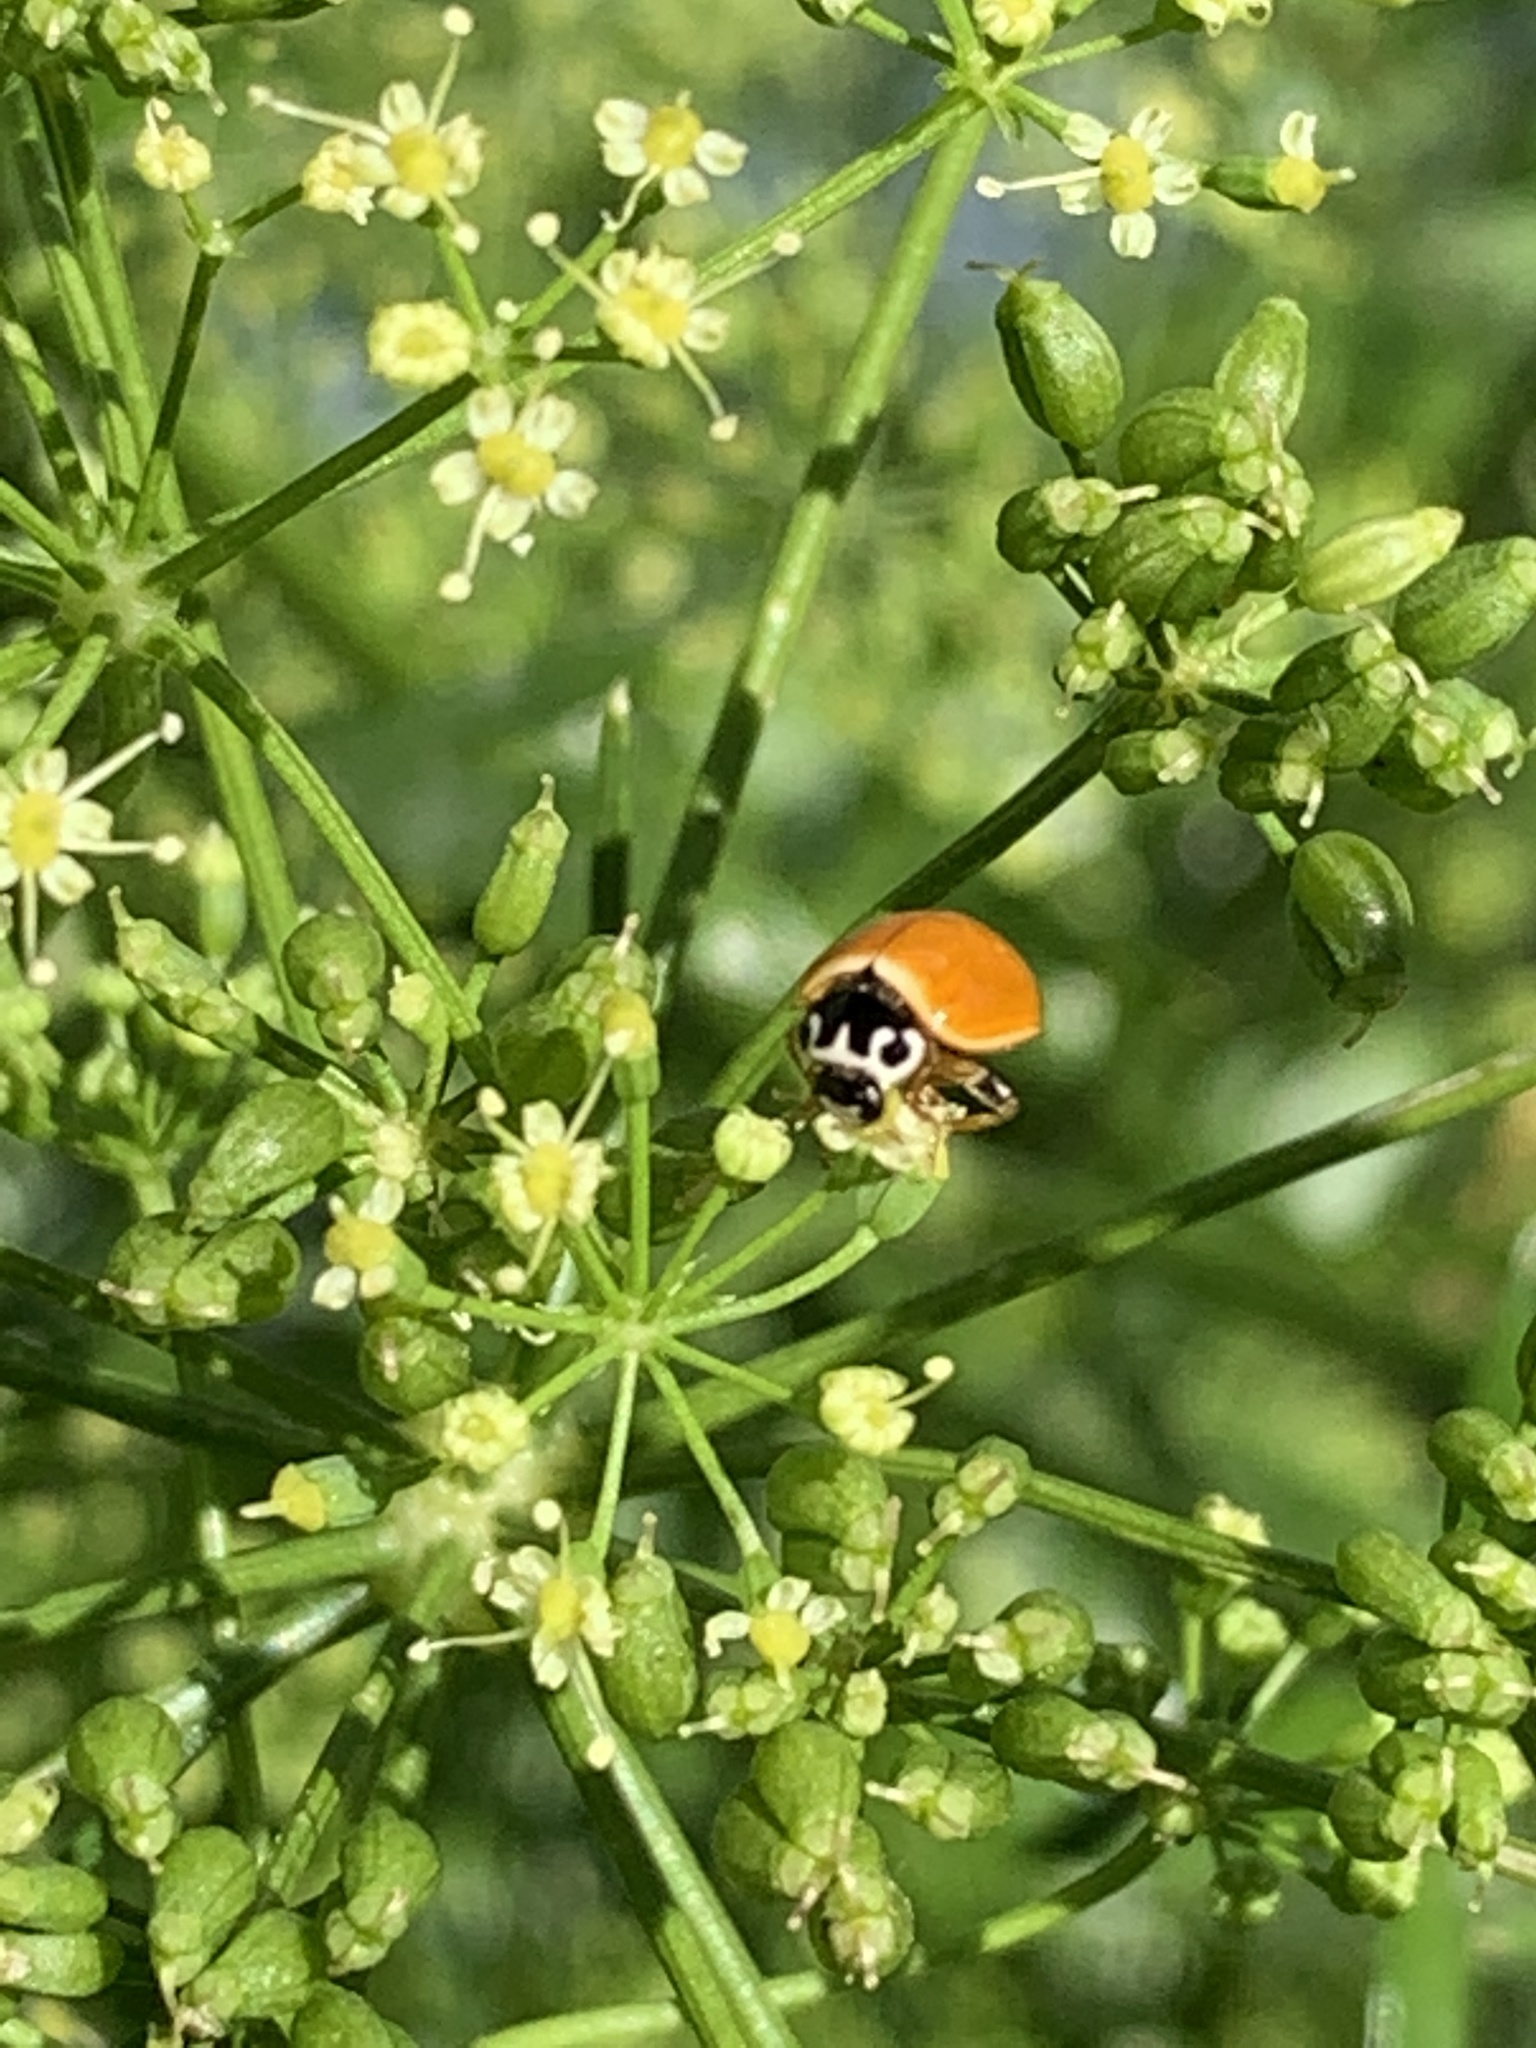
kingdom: Animalia
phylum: Arthropoda
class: Insecta
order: Coleoptera
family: Coccinellidae
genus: Cycloneda
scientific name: Cycloneda munda
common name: Polished lady beetle
